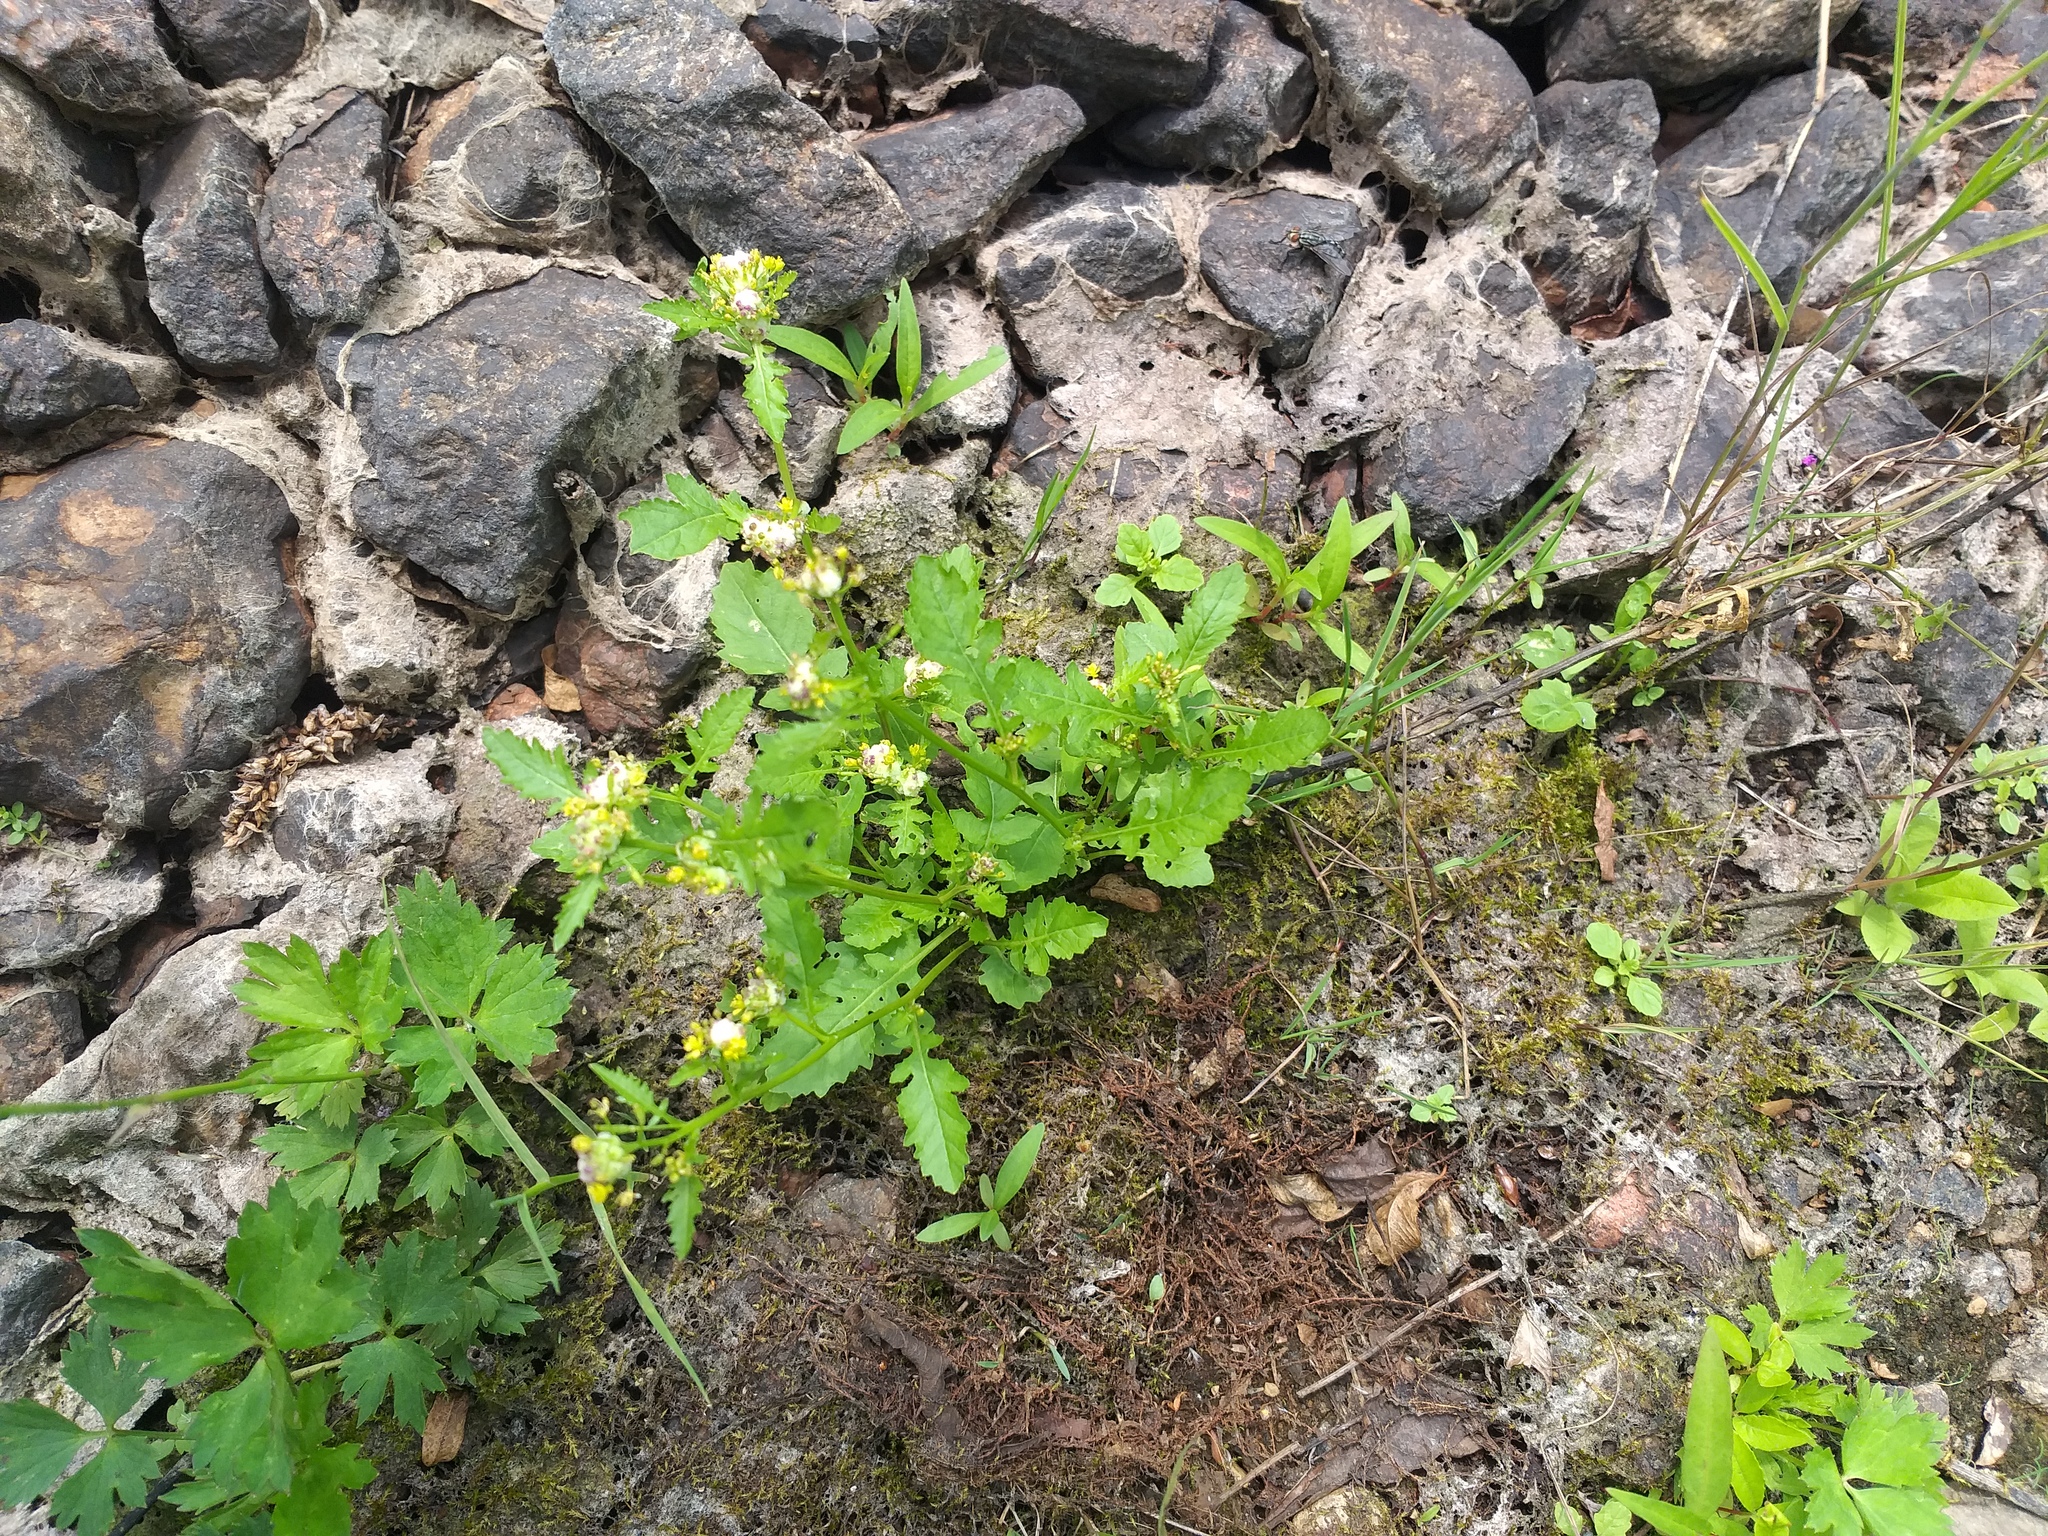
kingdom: Plantae
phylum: Tracheophyta
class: Magnoliopsida
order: Brassicales
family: Brassicaceae
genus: Rorippa
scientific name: Rorippa palustris
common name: Marsh yellow-cress
